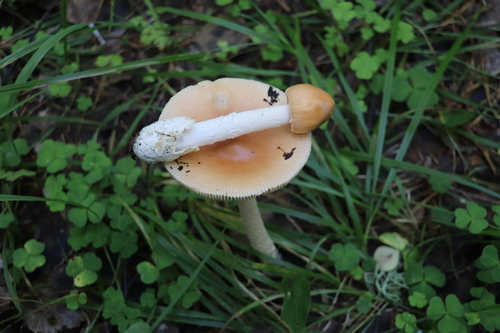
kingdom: Fungi
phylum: Basidiomycota
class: Agaricomycetes
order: Agaricales
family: Amanitaceae
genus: Amanita
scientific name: Amanita crocea
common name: Orange grisette
